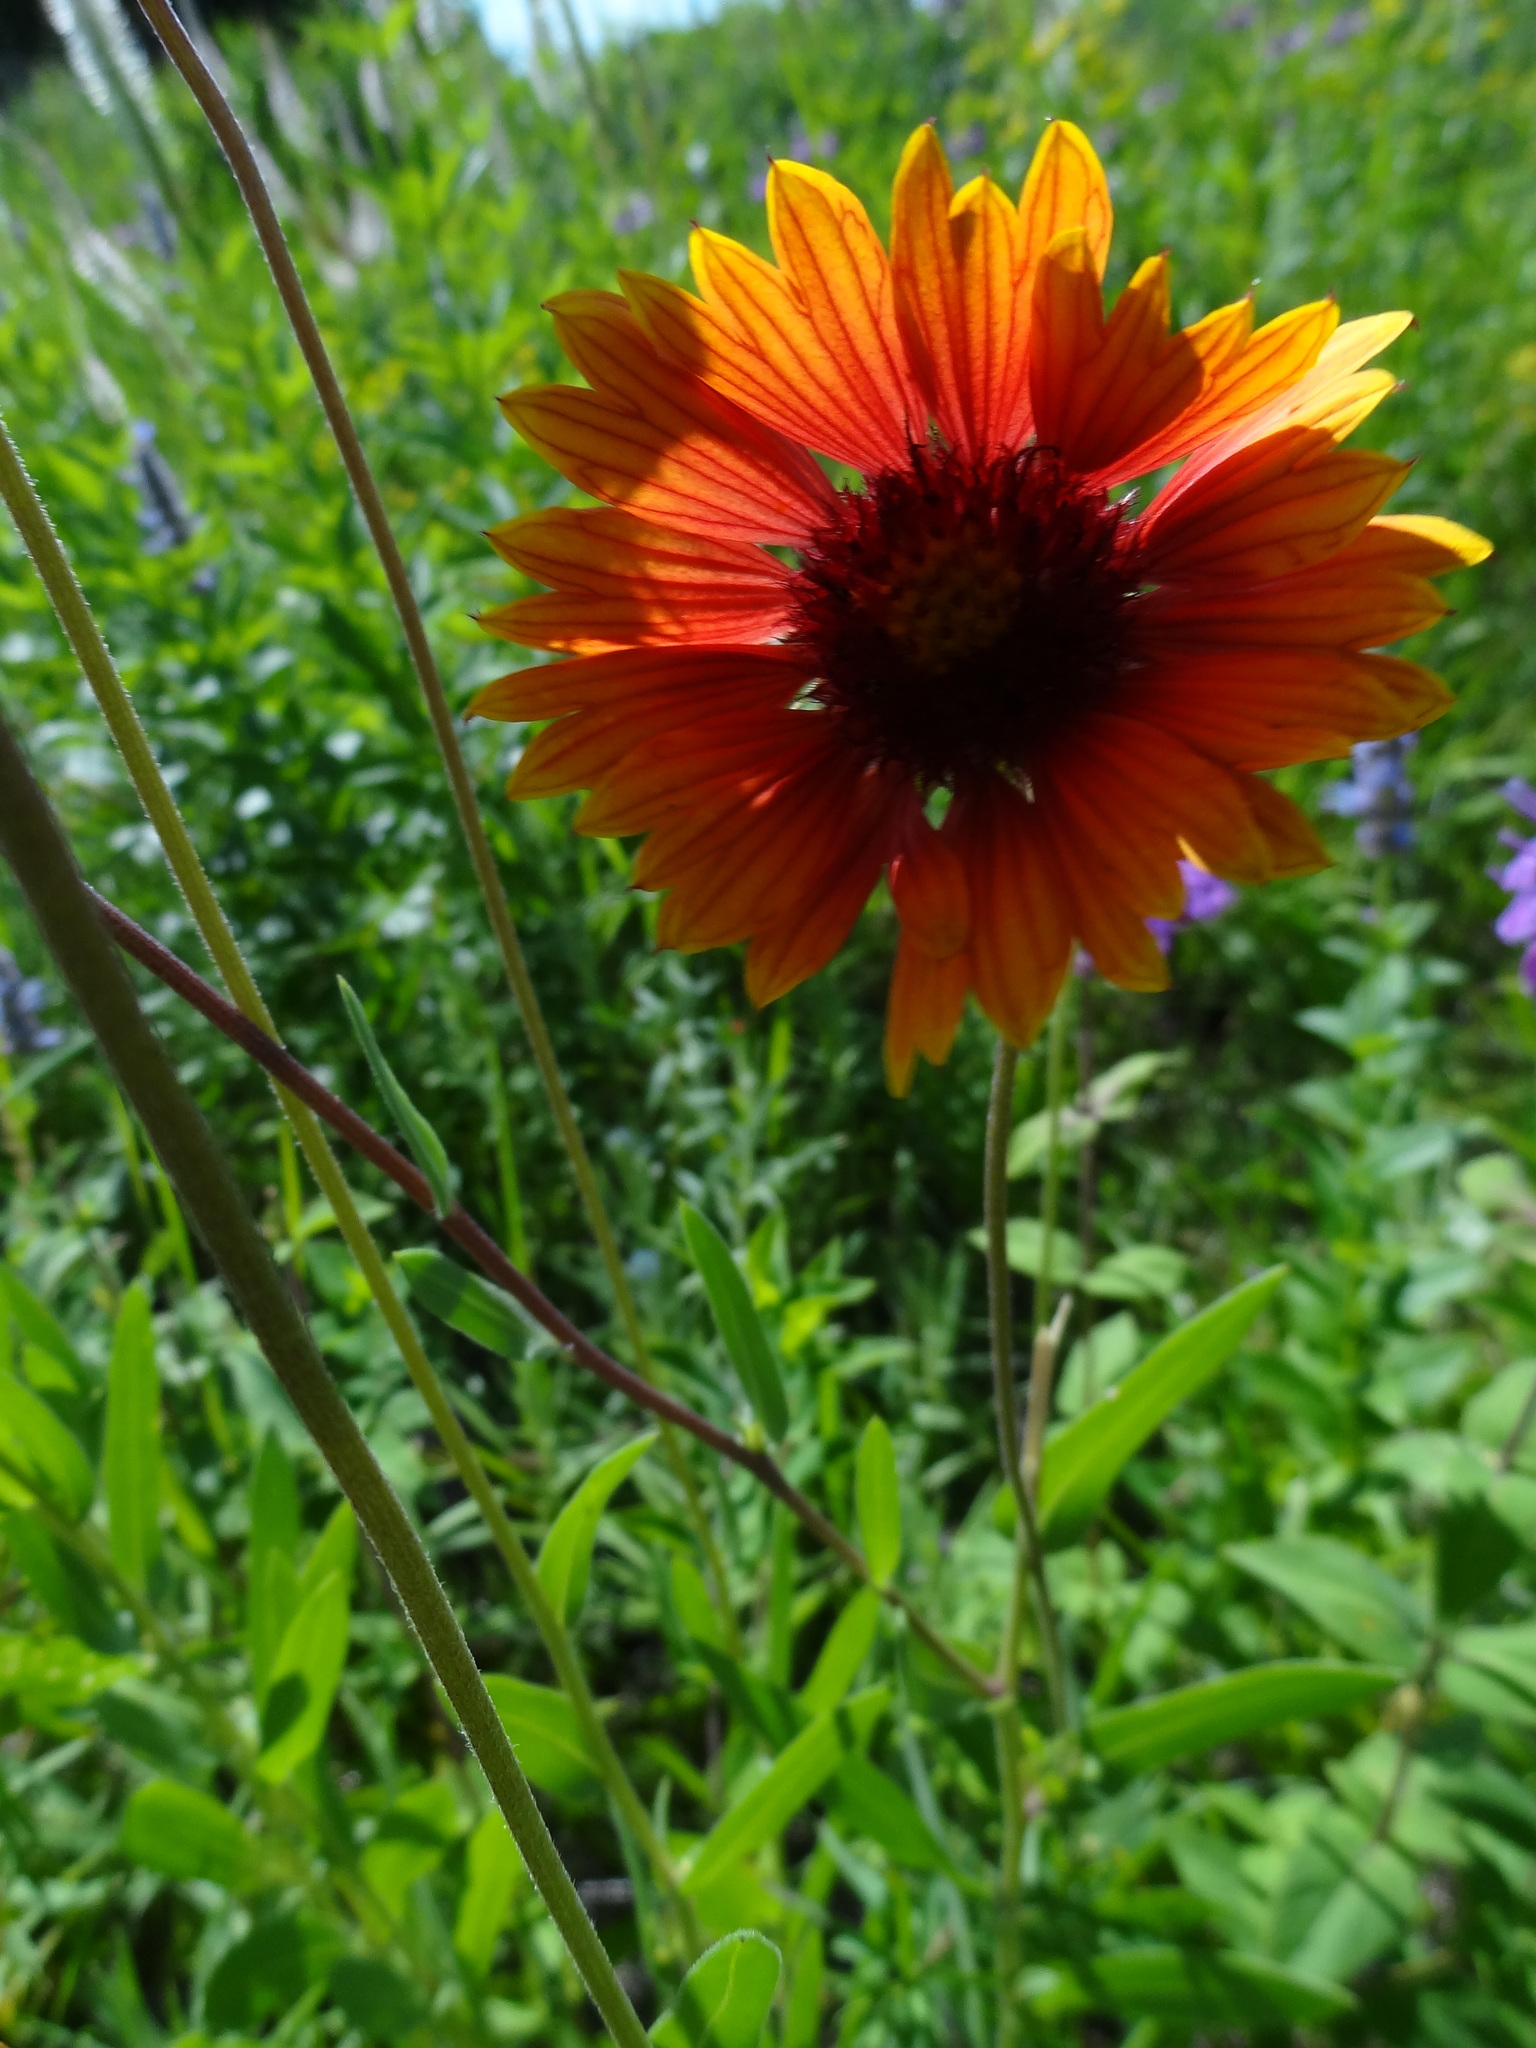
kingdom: Plantae
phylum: Tracheophyta
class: Magnoliopsida
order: Asterales
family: Asteraceae
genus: Gaillardia
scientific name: Gaillardia aristata
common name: Blanket-flower
